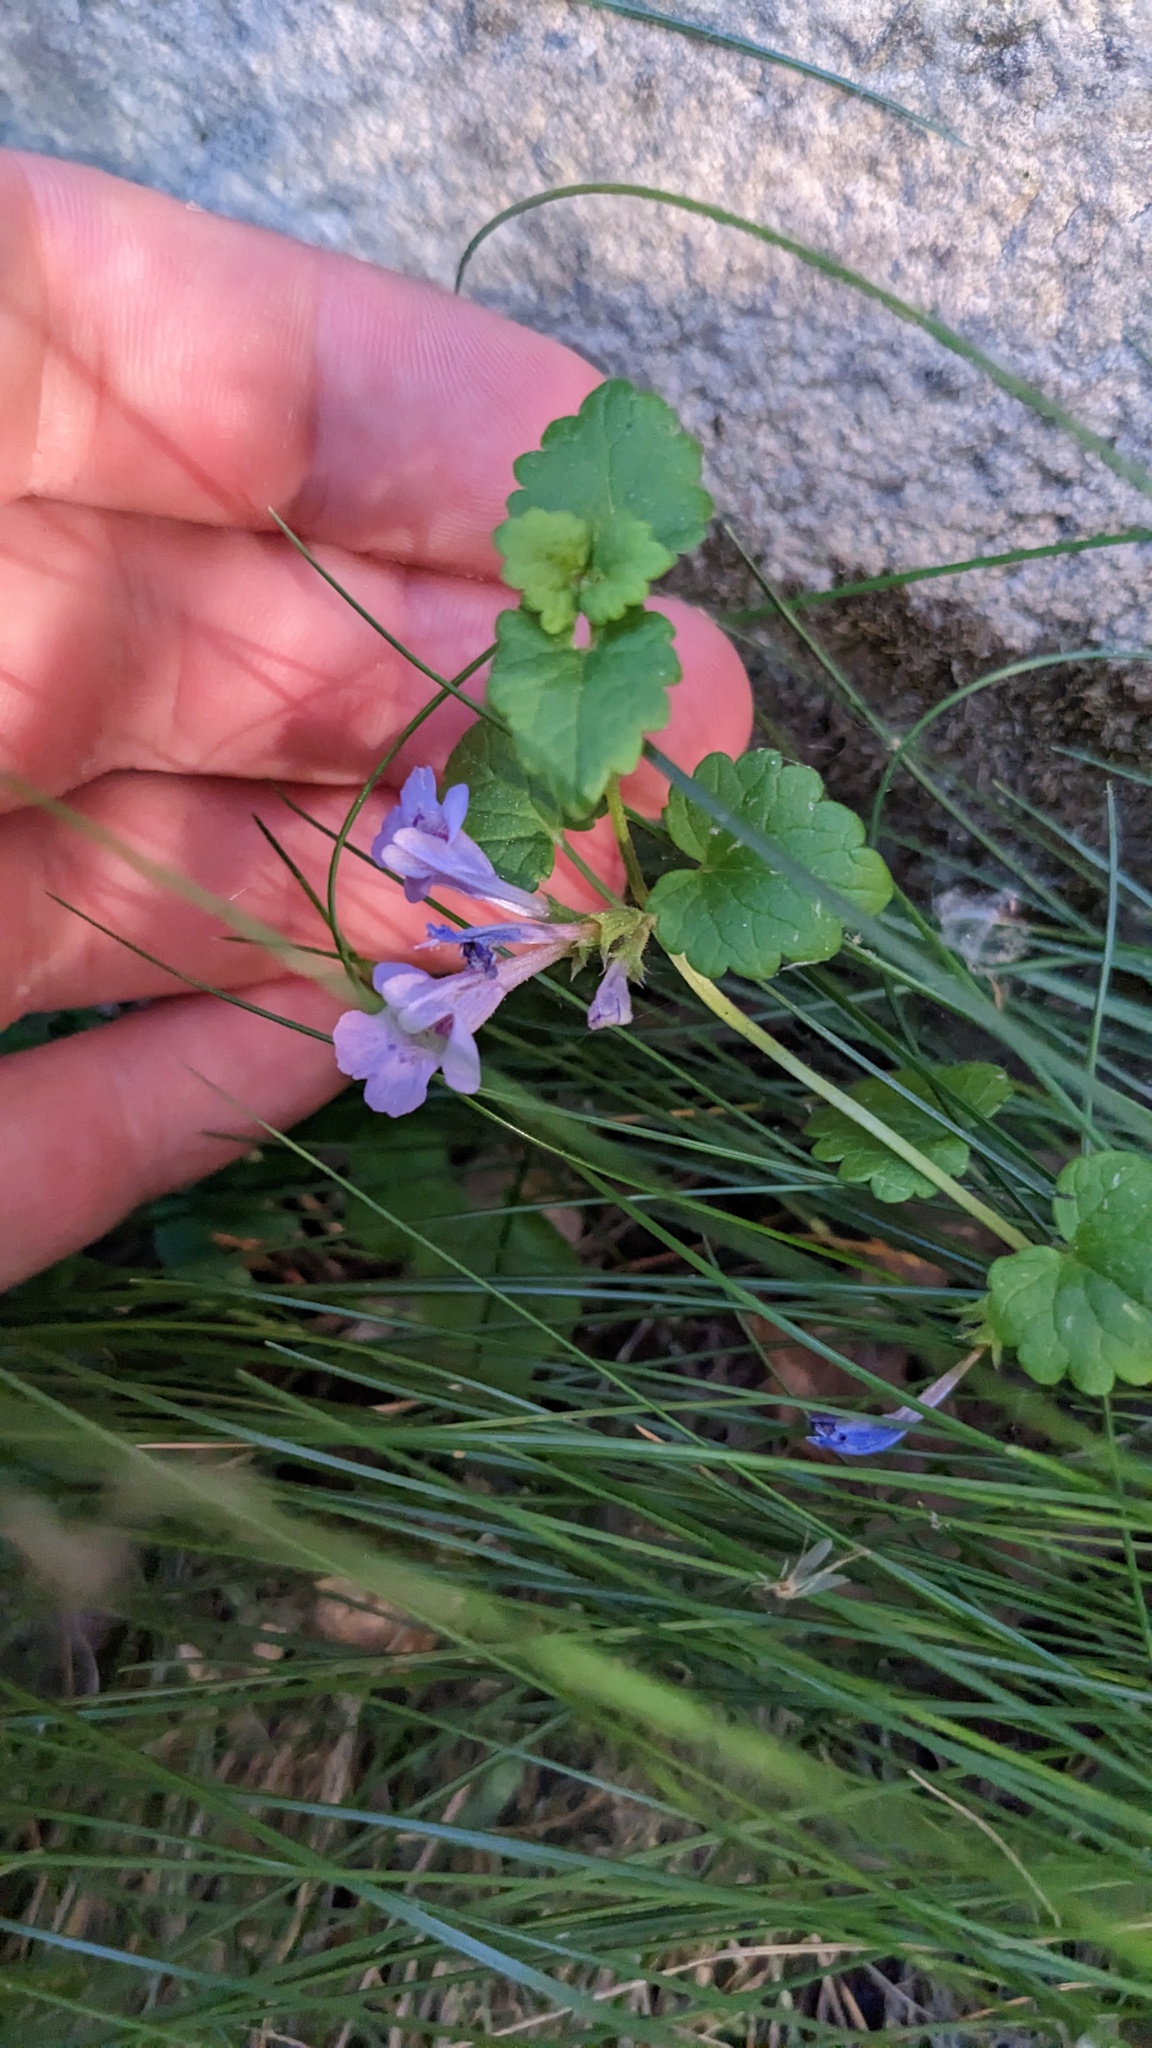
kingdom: Plantae
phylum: Tracheophyta
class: Magnoliopsida
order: Lamiales
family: Lamiaceae
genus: Glechoma
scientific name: Glechoma hederacea
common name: Ground ivy
